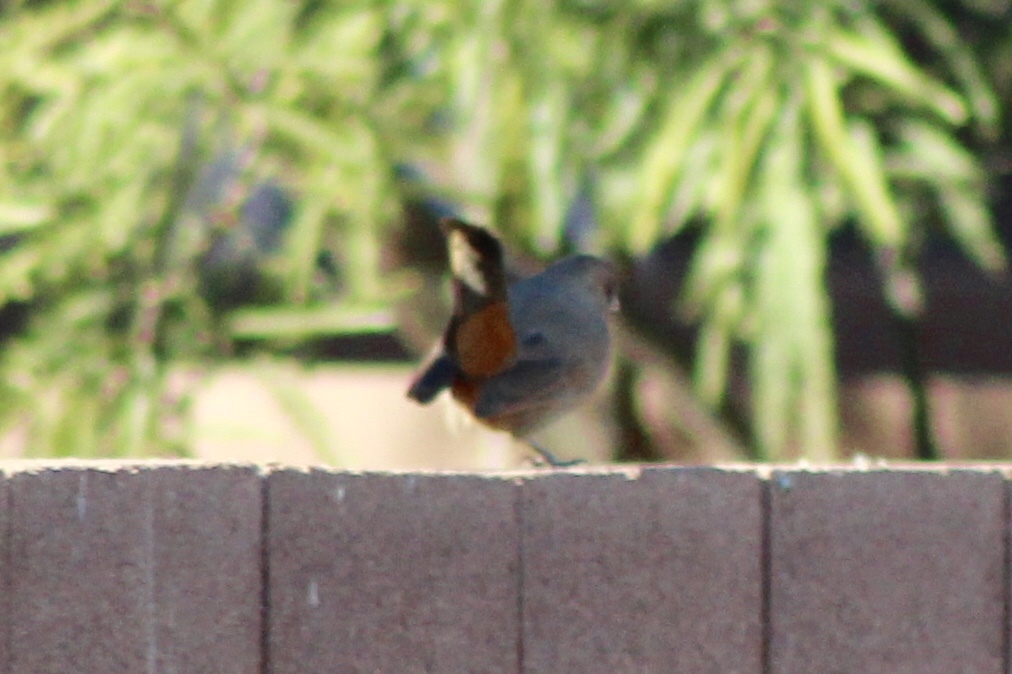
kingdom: Animalia
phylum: Chordata
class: Aves
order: Passeriformes
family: Passerellidae
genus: Melozone
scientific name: Melozone aberti
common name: Abert's towhee
